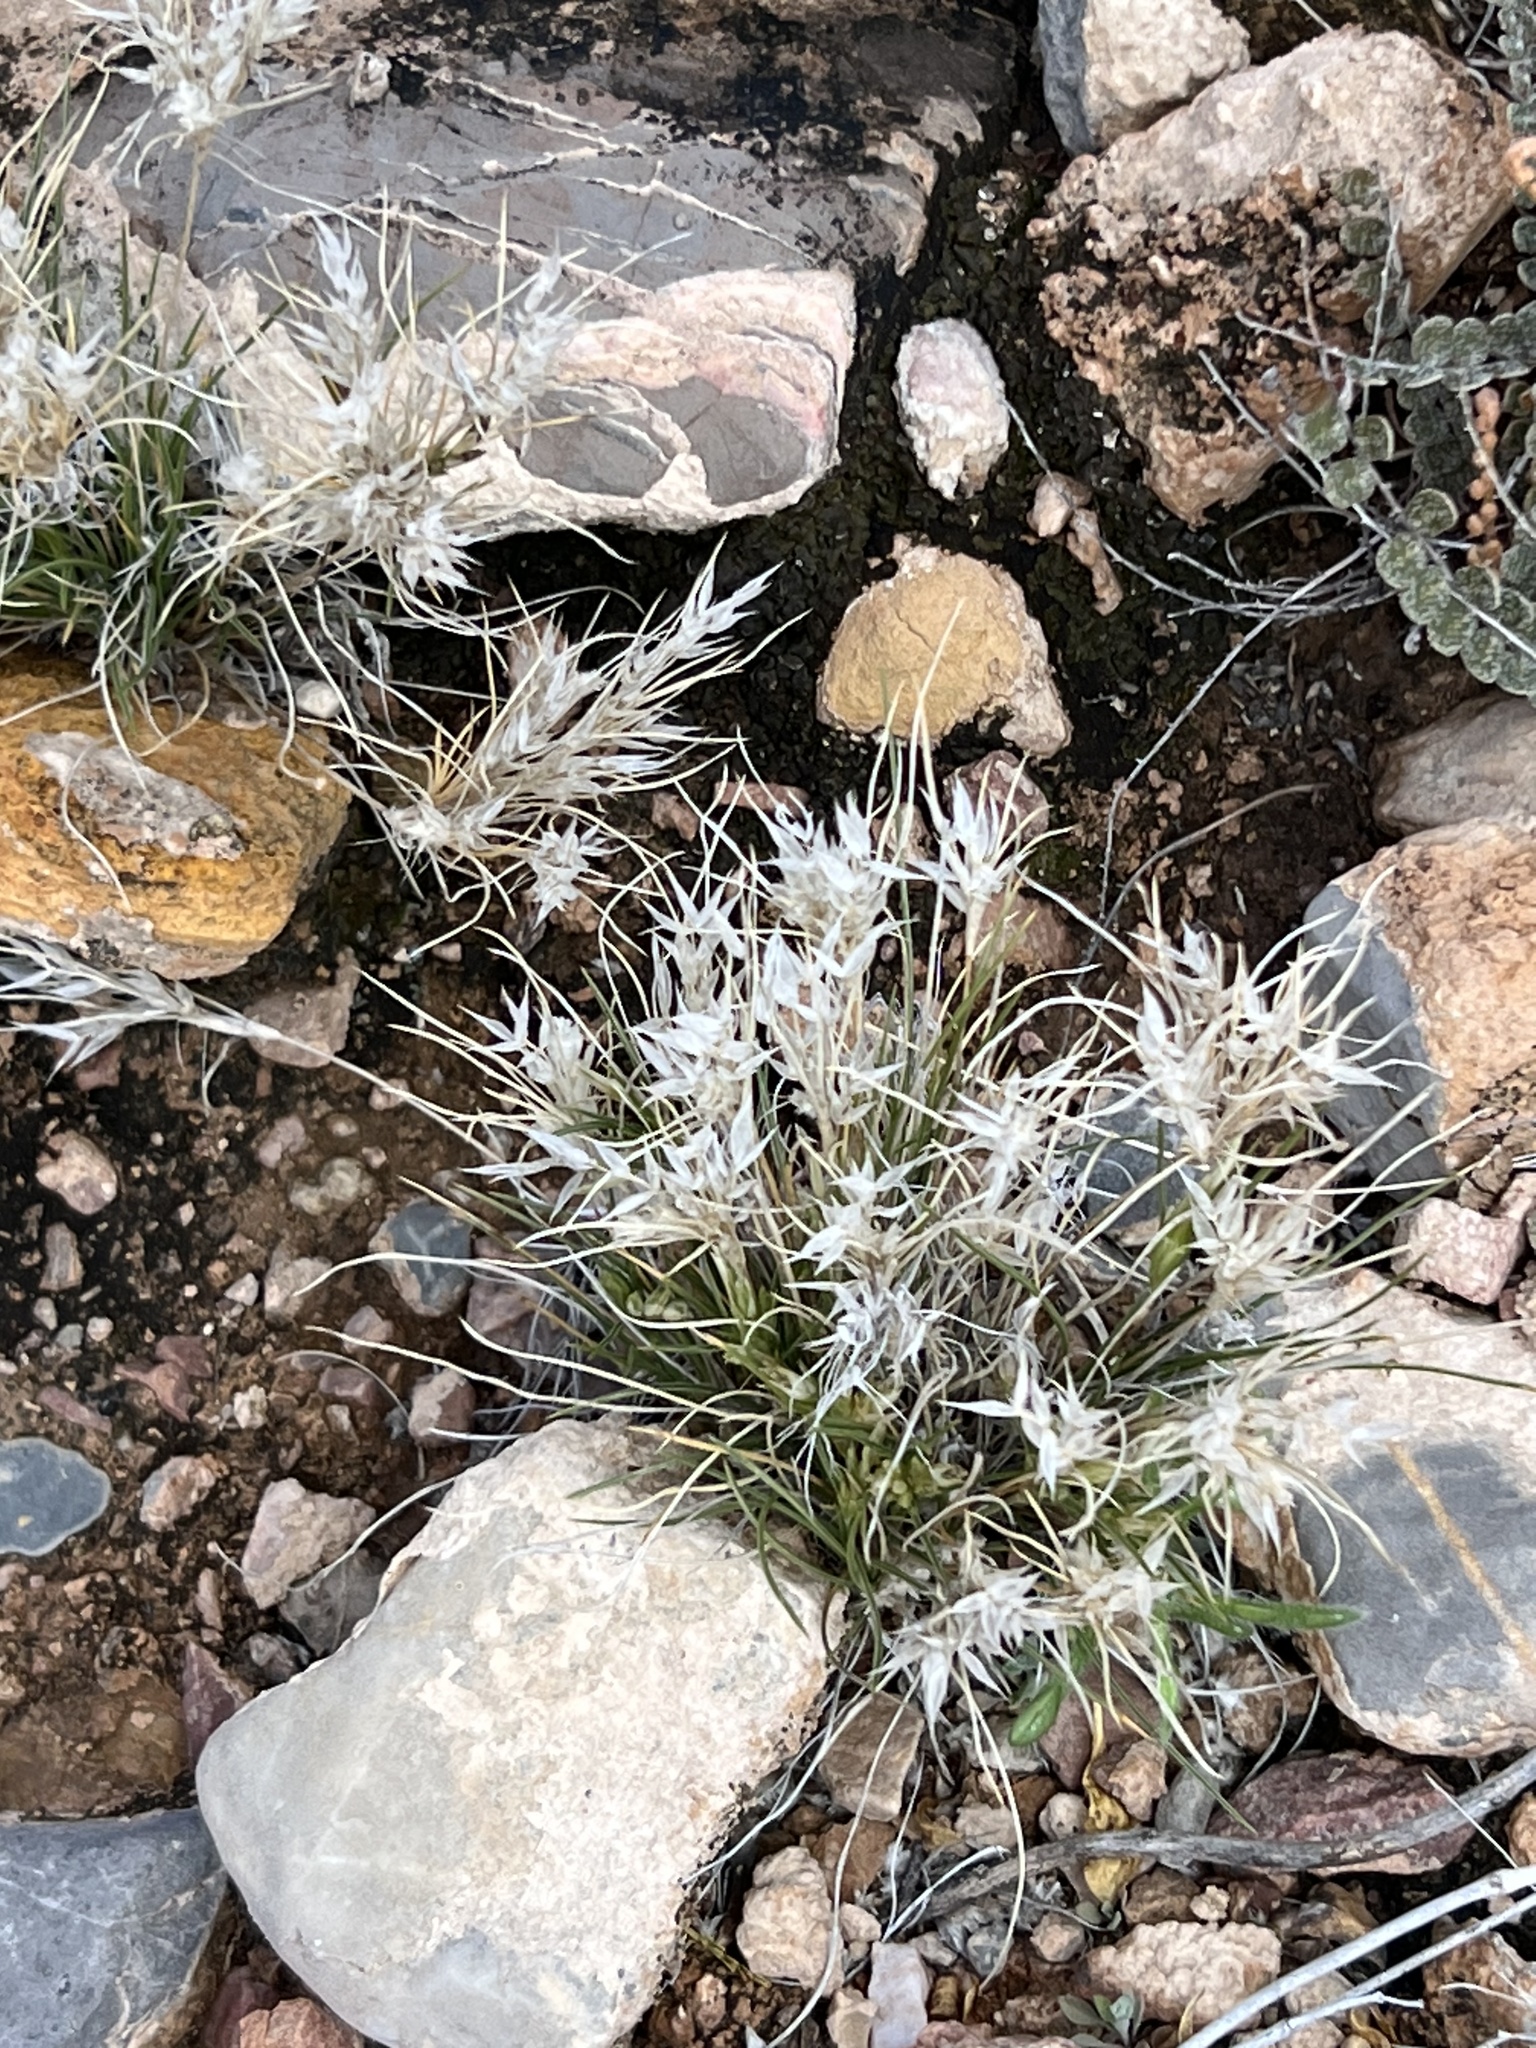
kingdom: Plantae
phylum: Tracheophyta
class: Liliopsida
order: Poales
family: Poaceae
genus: Dasyochloa
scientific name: Dasyochloa pulchella
